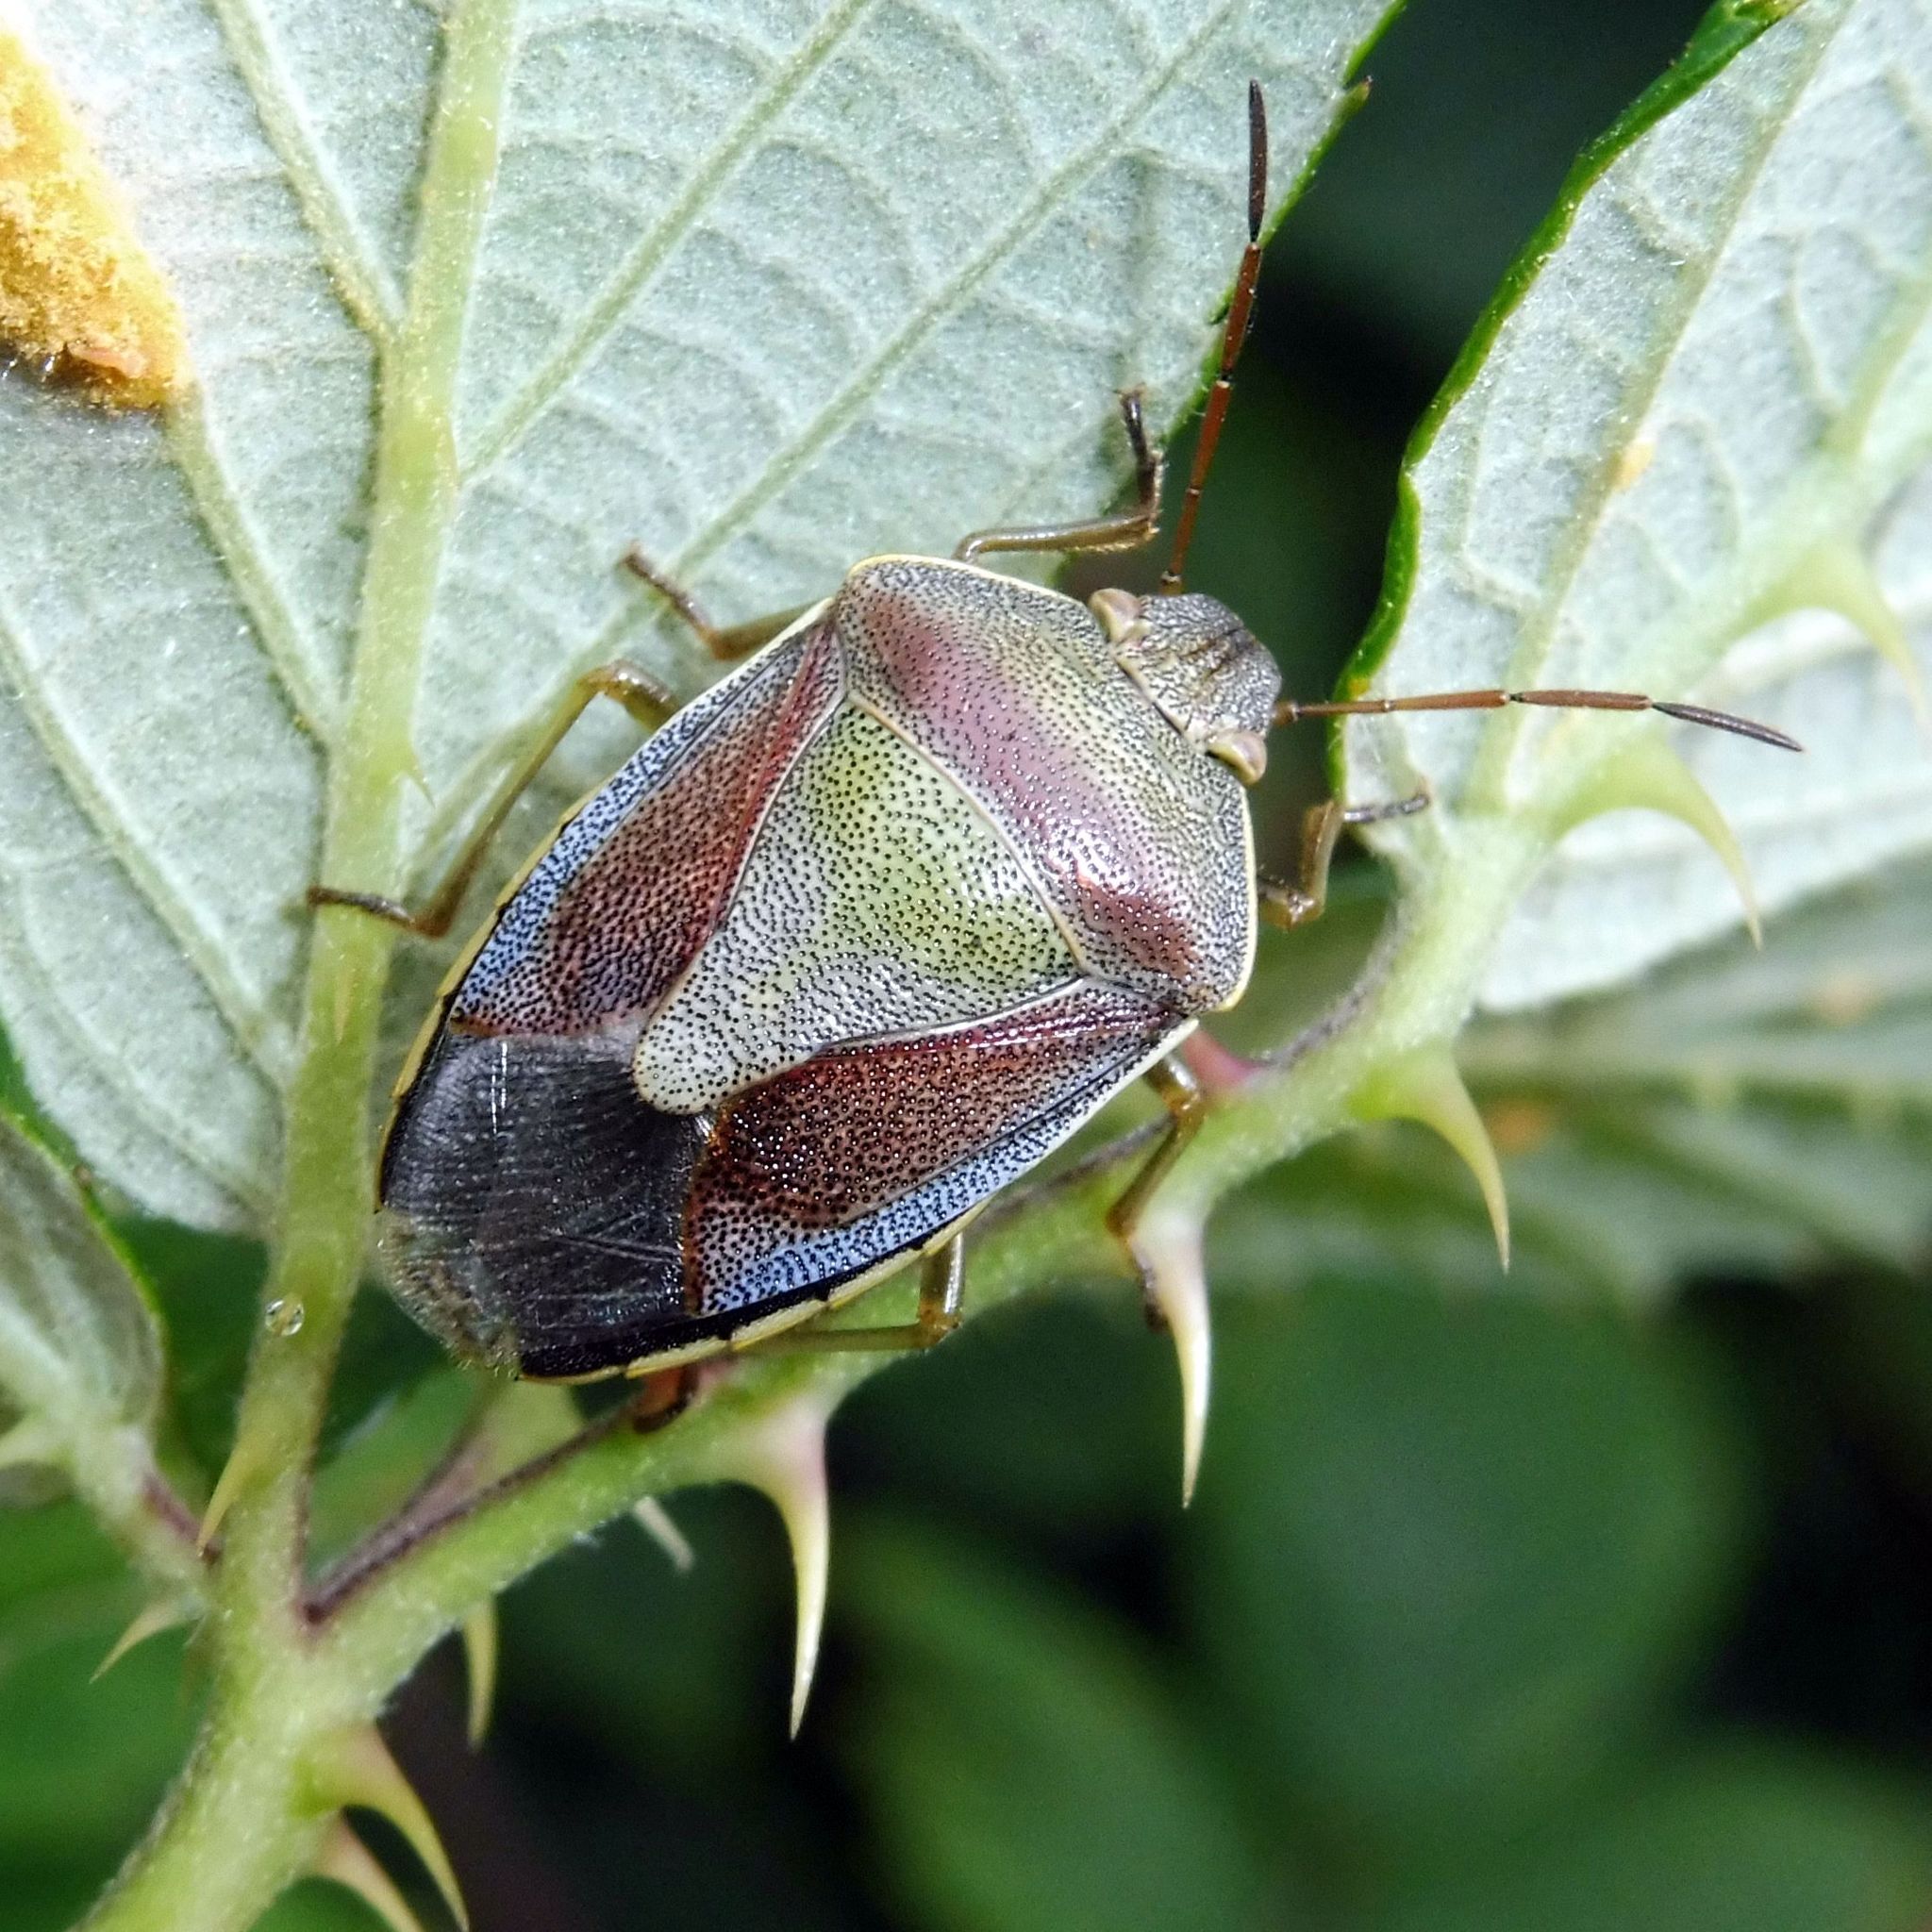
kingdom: Animalia
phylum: Arthropoda
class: Insecta
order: Hemiptera
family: Pentatomidae
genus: Piezodorus
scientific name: Piezodorus lituratus
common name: Stink bug
